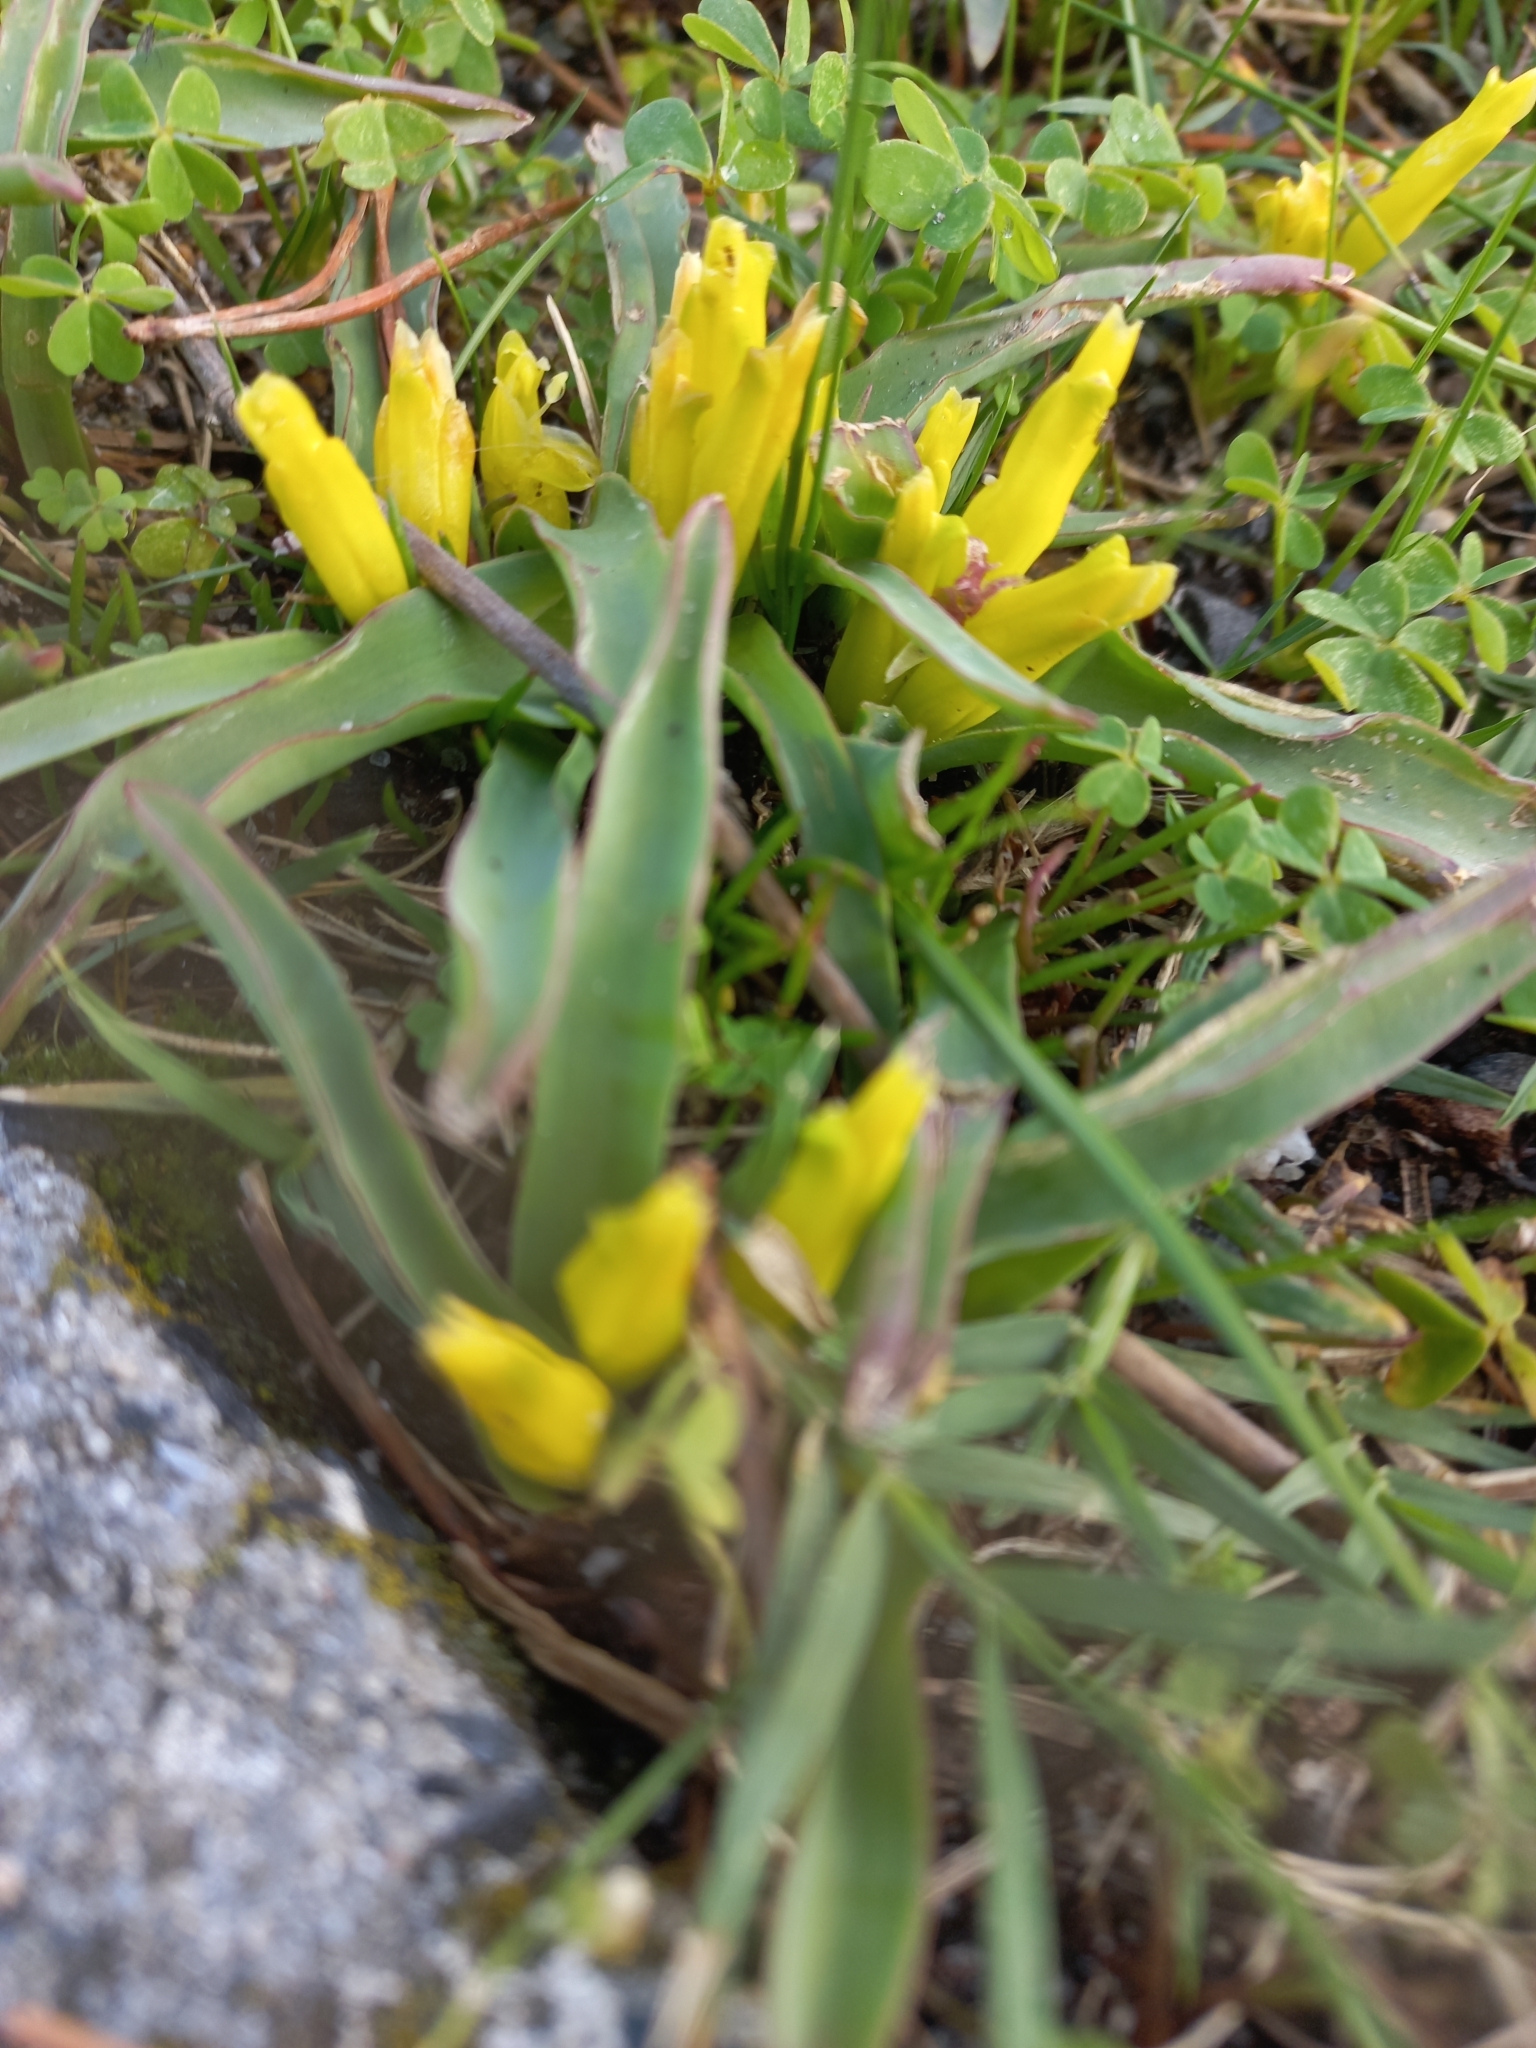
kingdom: Plantae
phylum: Tracheophyta
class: Liliopsida
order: Asparagales
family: Asparagaceae
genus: Lachenalia
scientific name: Lachenalia reflexa
